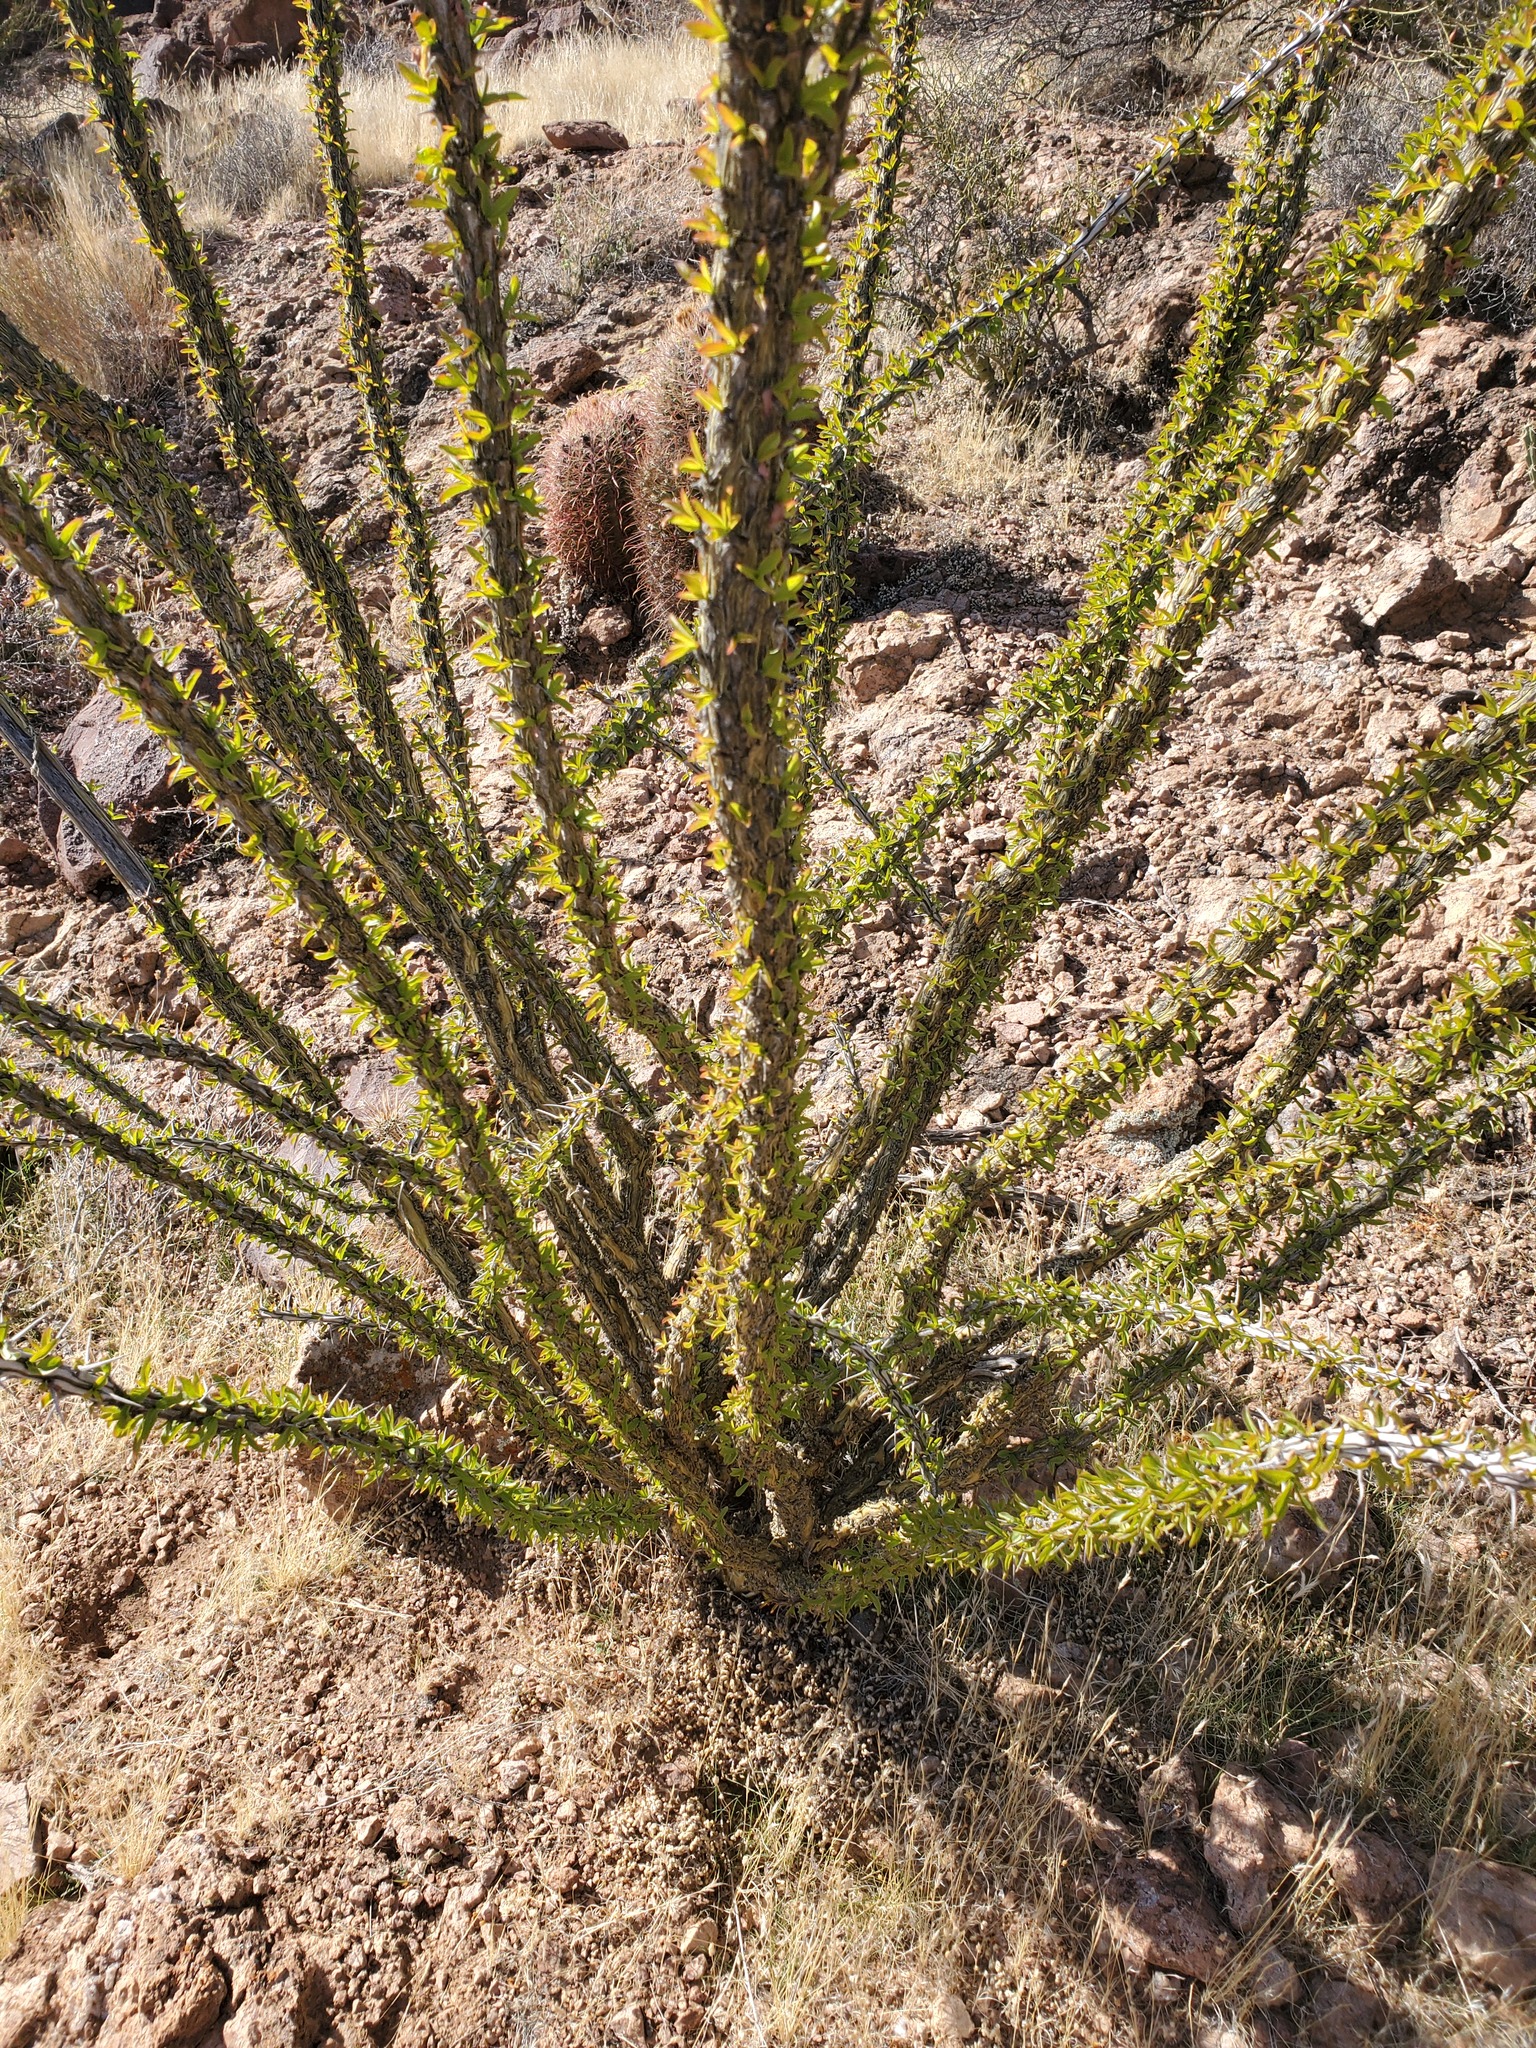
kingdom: Plantae
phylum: Tracheophyta
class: Magnoliopsida
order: Ericales
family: Fouquieriaceae
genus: Fouquieria
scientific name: Fouquieria splendens
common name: Vine-cactus
